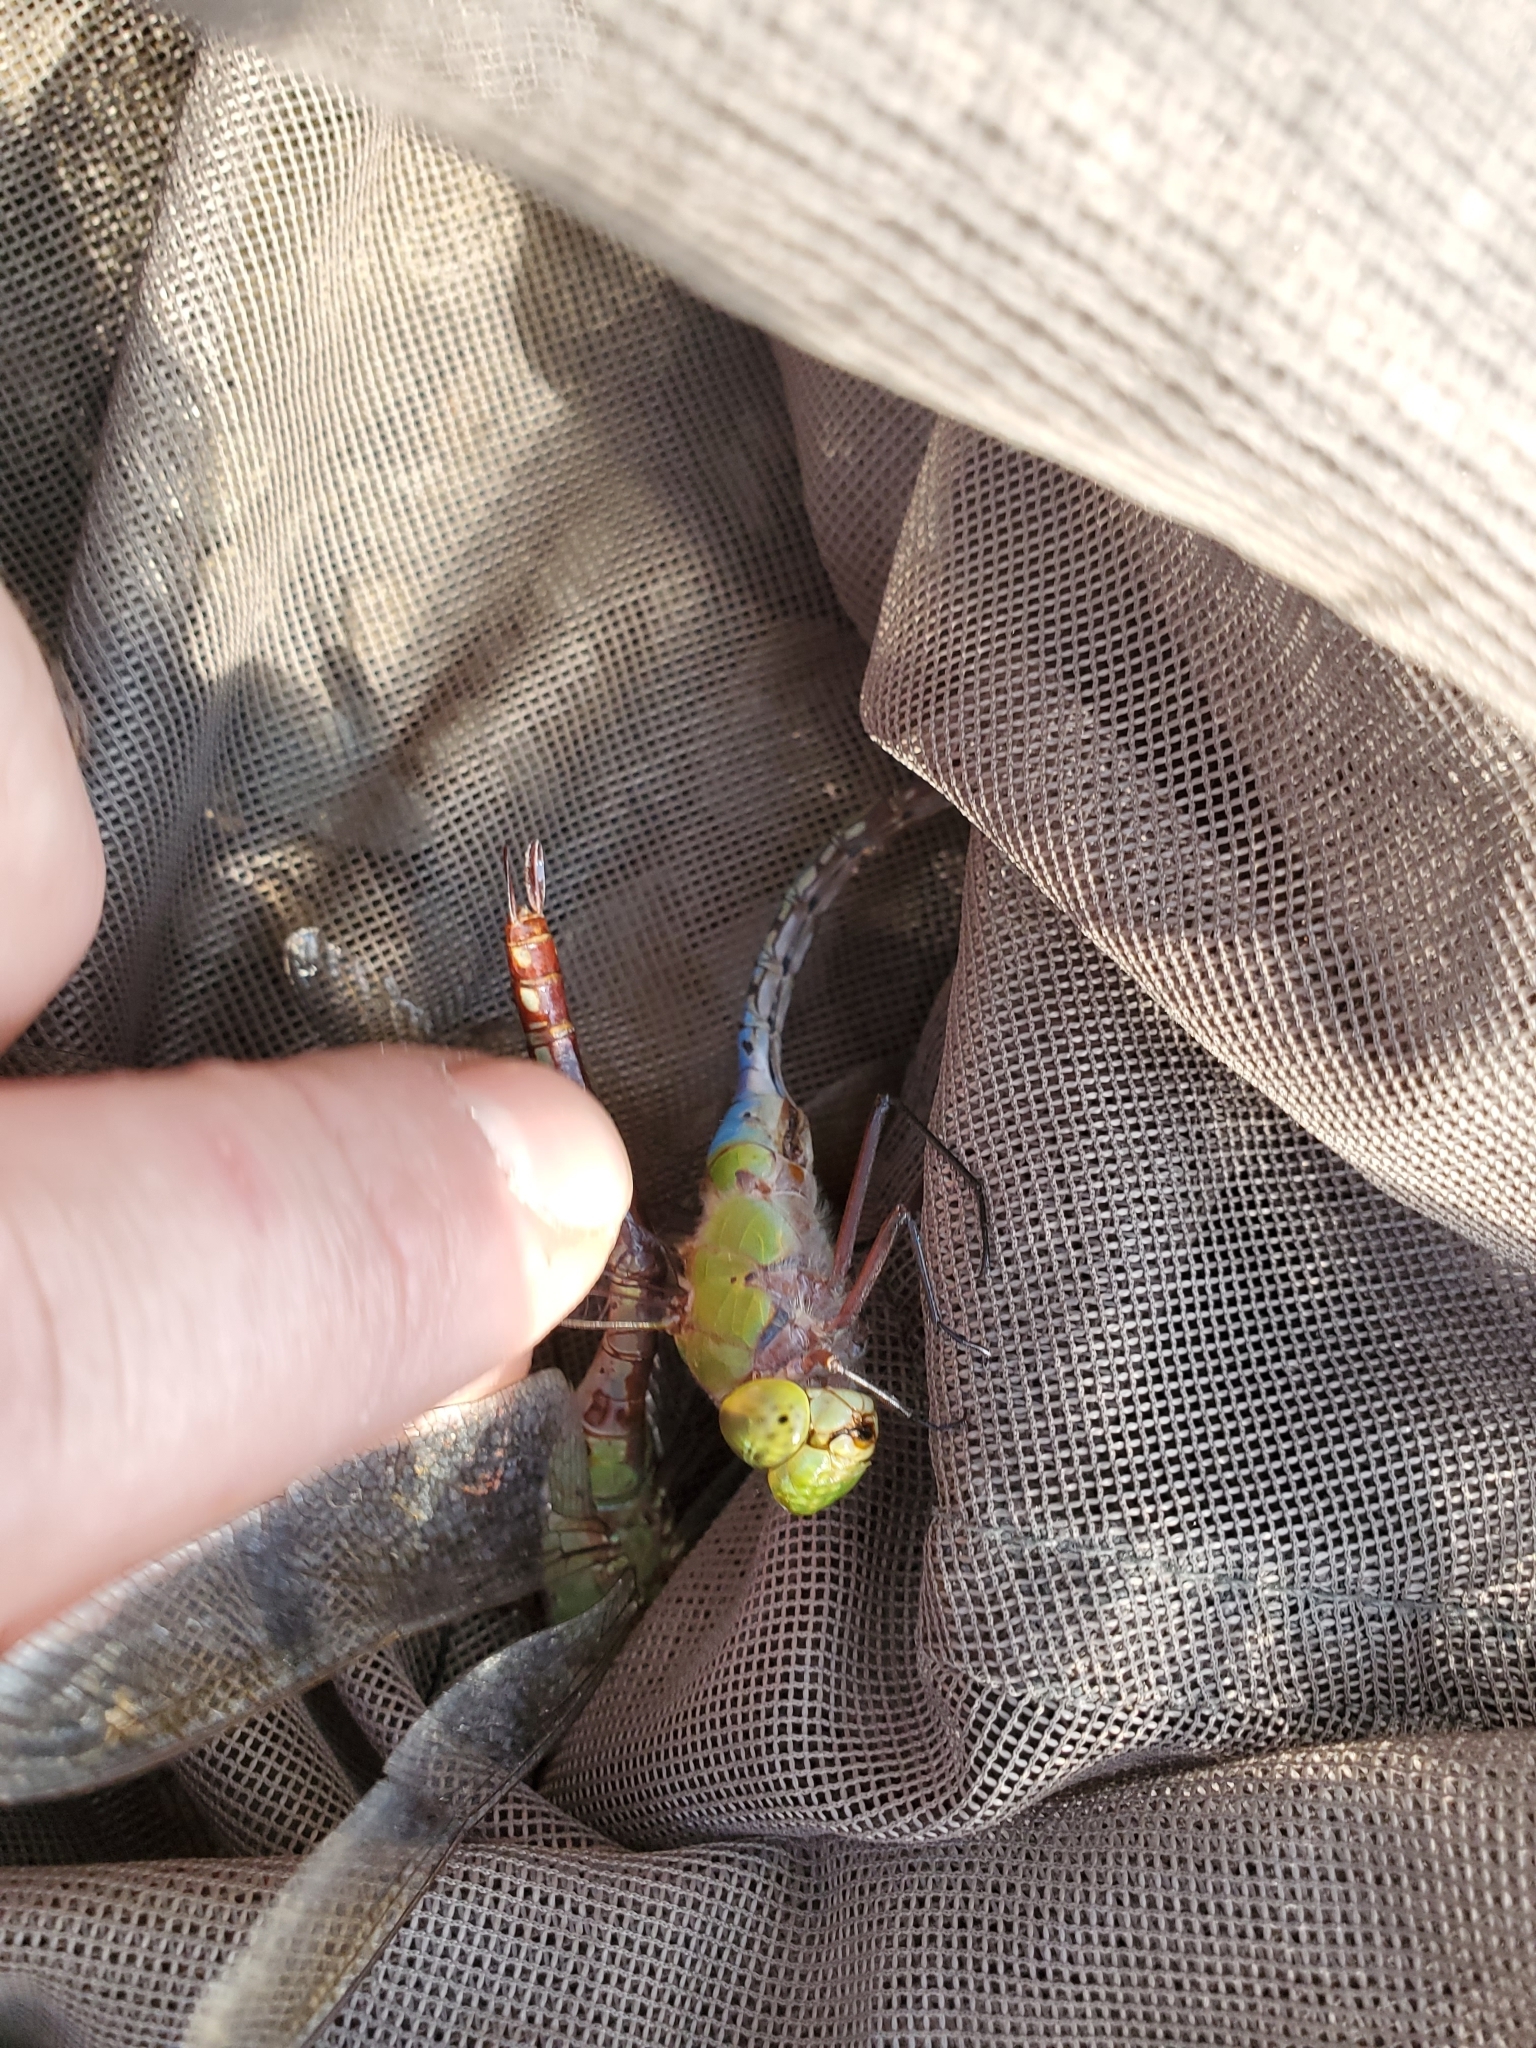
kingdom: Animalia
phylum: Arthropoda
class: Insecta
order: Odonata
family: Aeshnidae
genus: Anax
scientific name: Anax junius
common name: Common green darner
